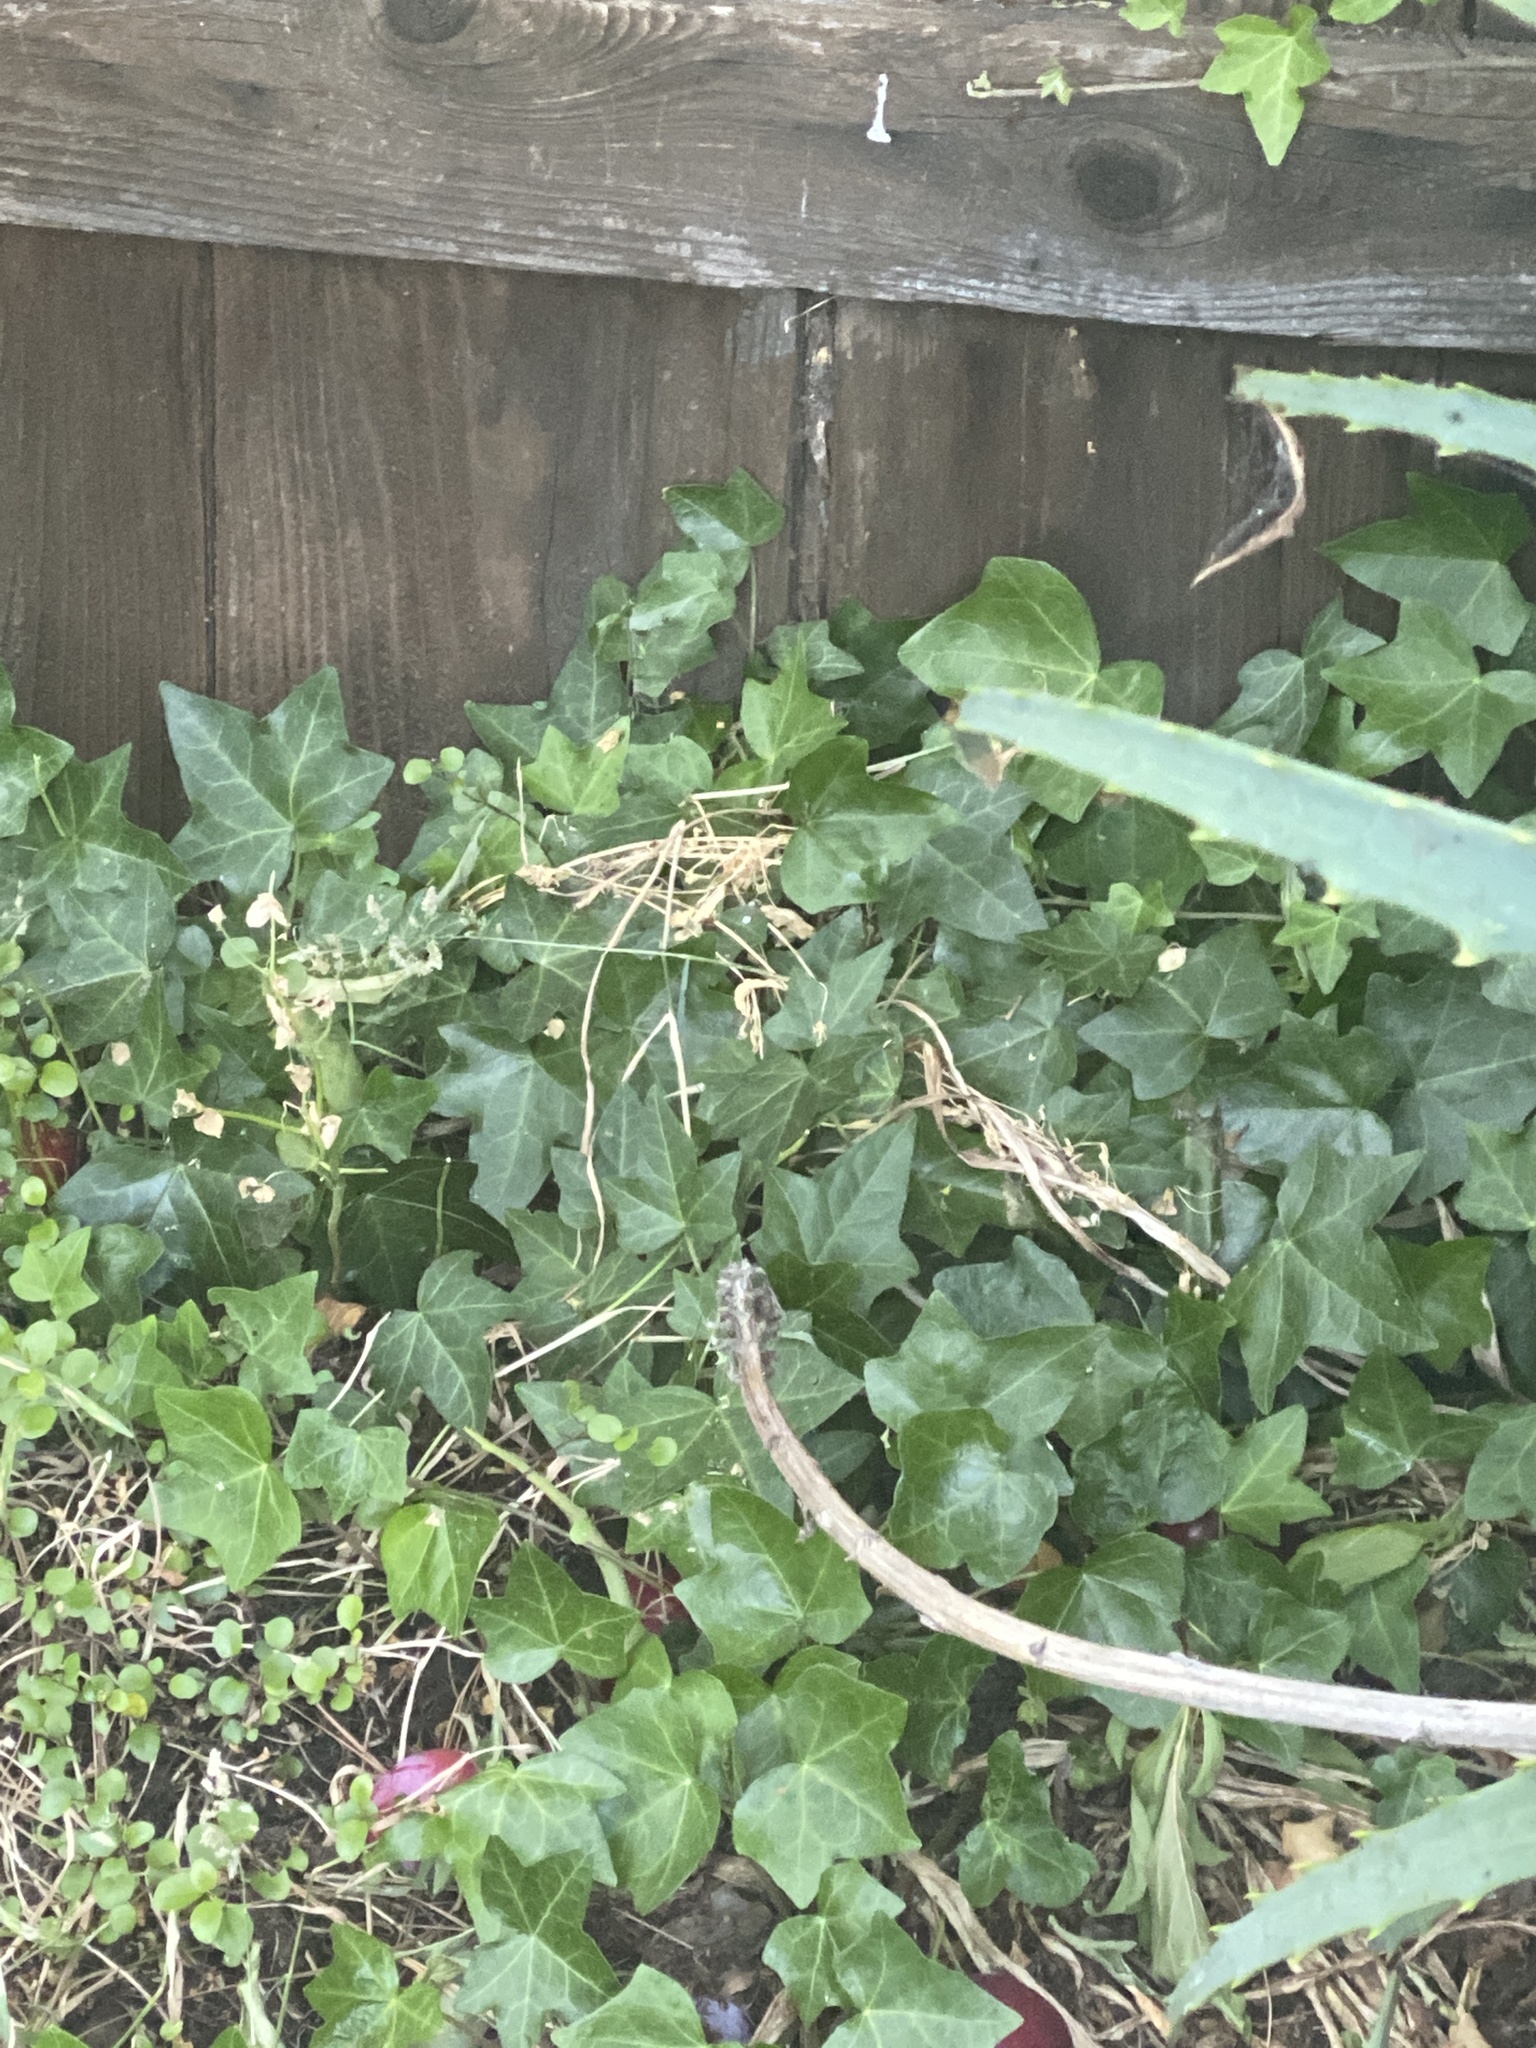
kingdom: Plantae
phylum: Tracheophyta
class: Magnoliopsida
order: Apiales
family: Araliaceae
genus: Hedera
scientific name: Hedera helix
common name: Ivy
